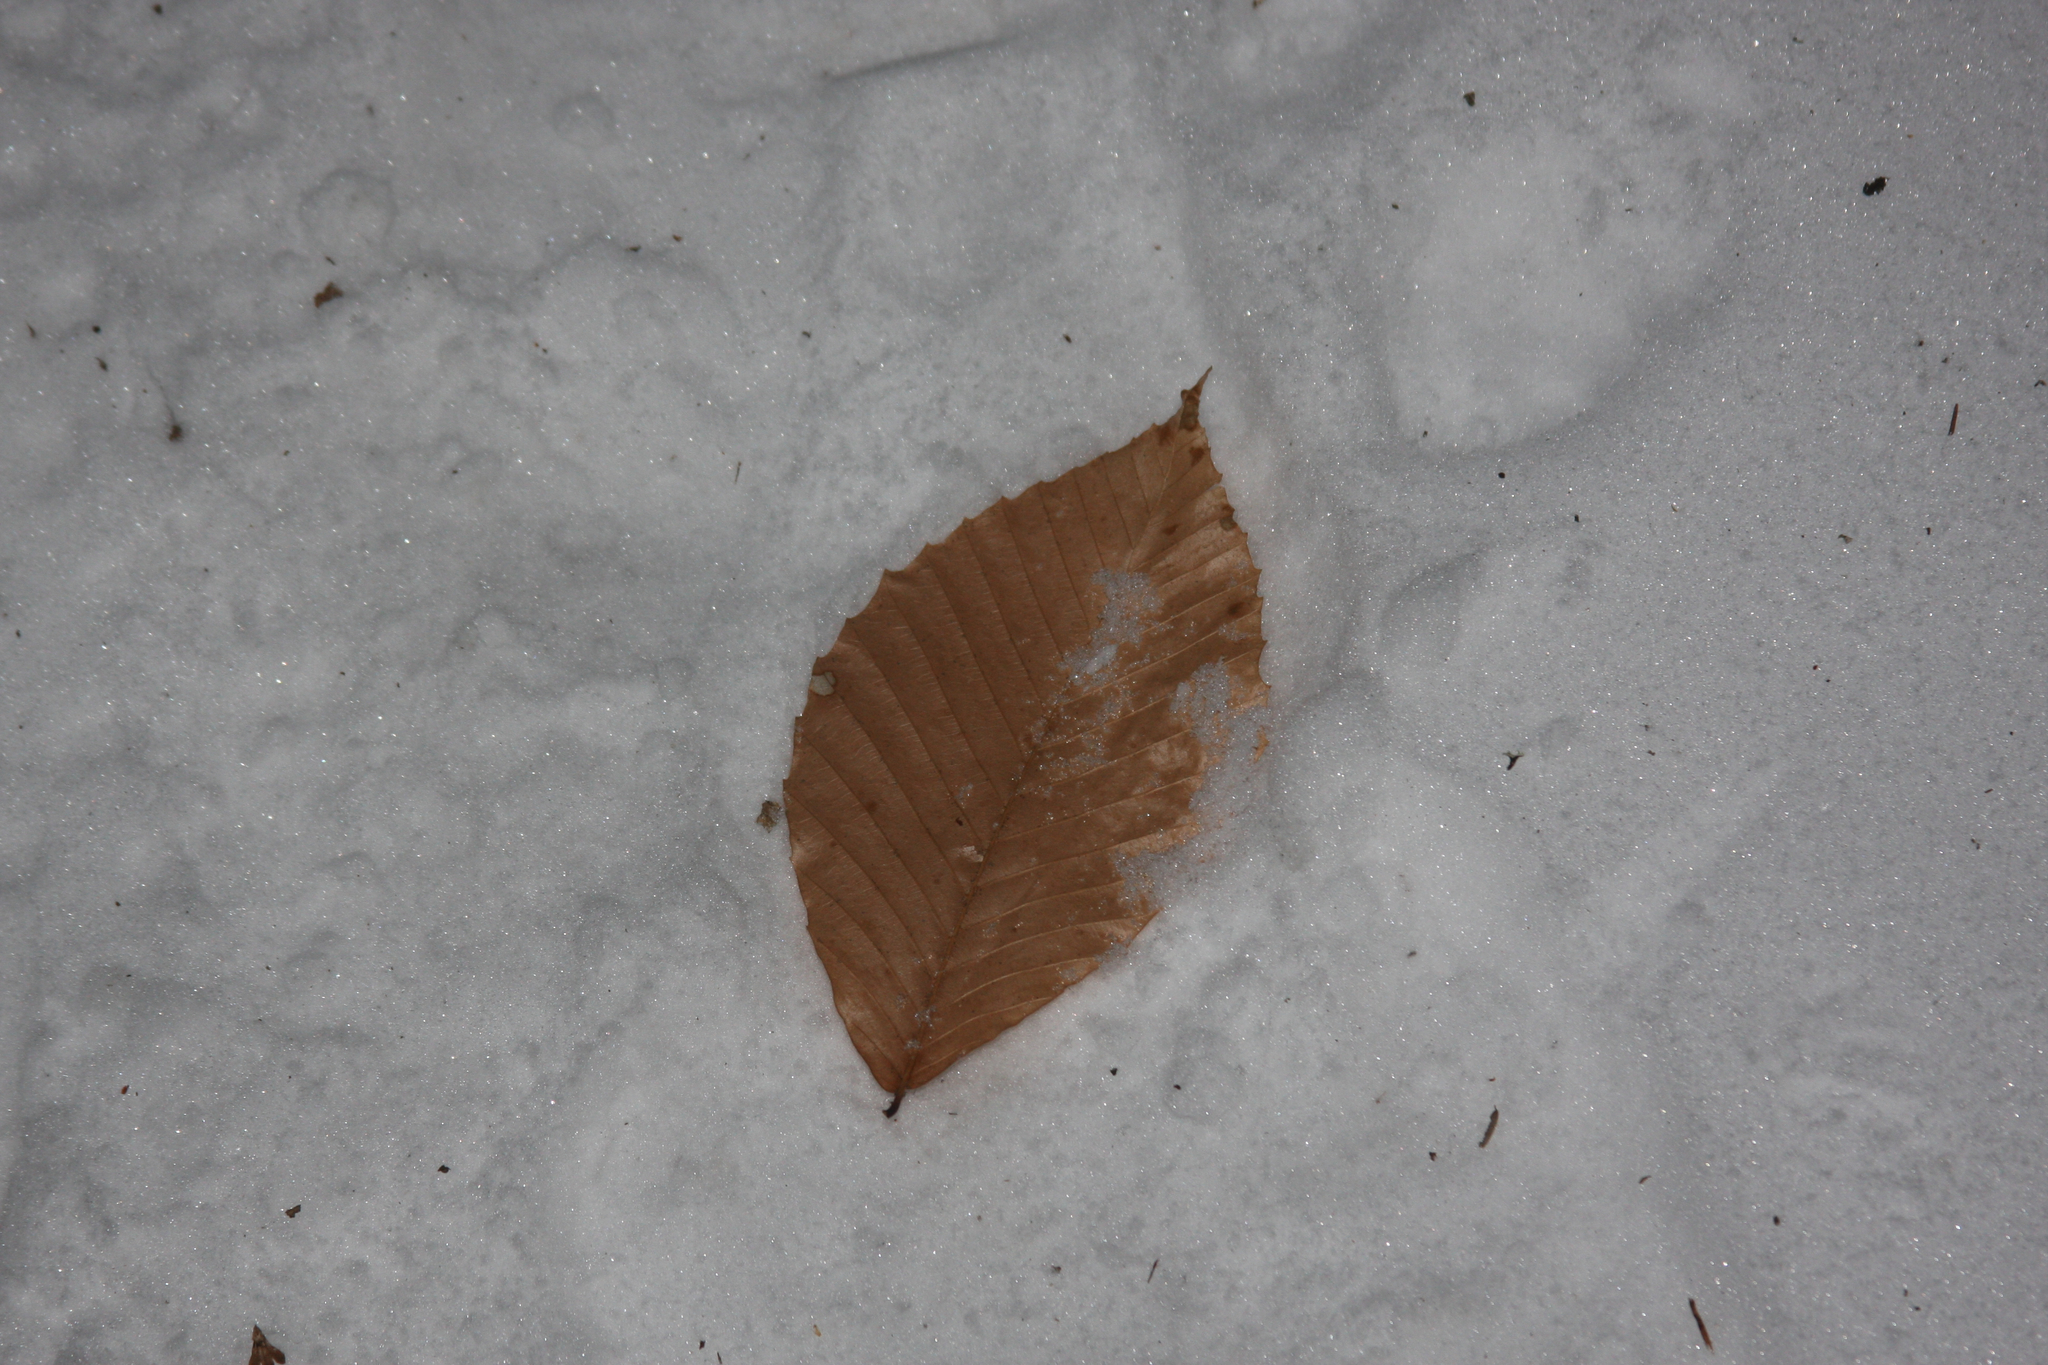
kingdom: Plantae
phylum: Tracheophyta
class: Magnoliopsida
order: Fagales
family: Fagaceae
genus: Fagus
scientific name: Fagus grandifolia
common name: American beech
